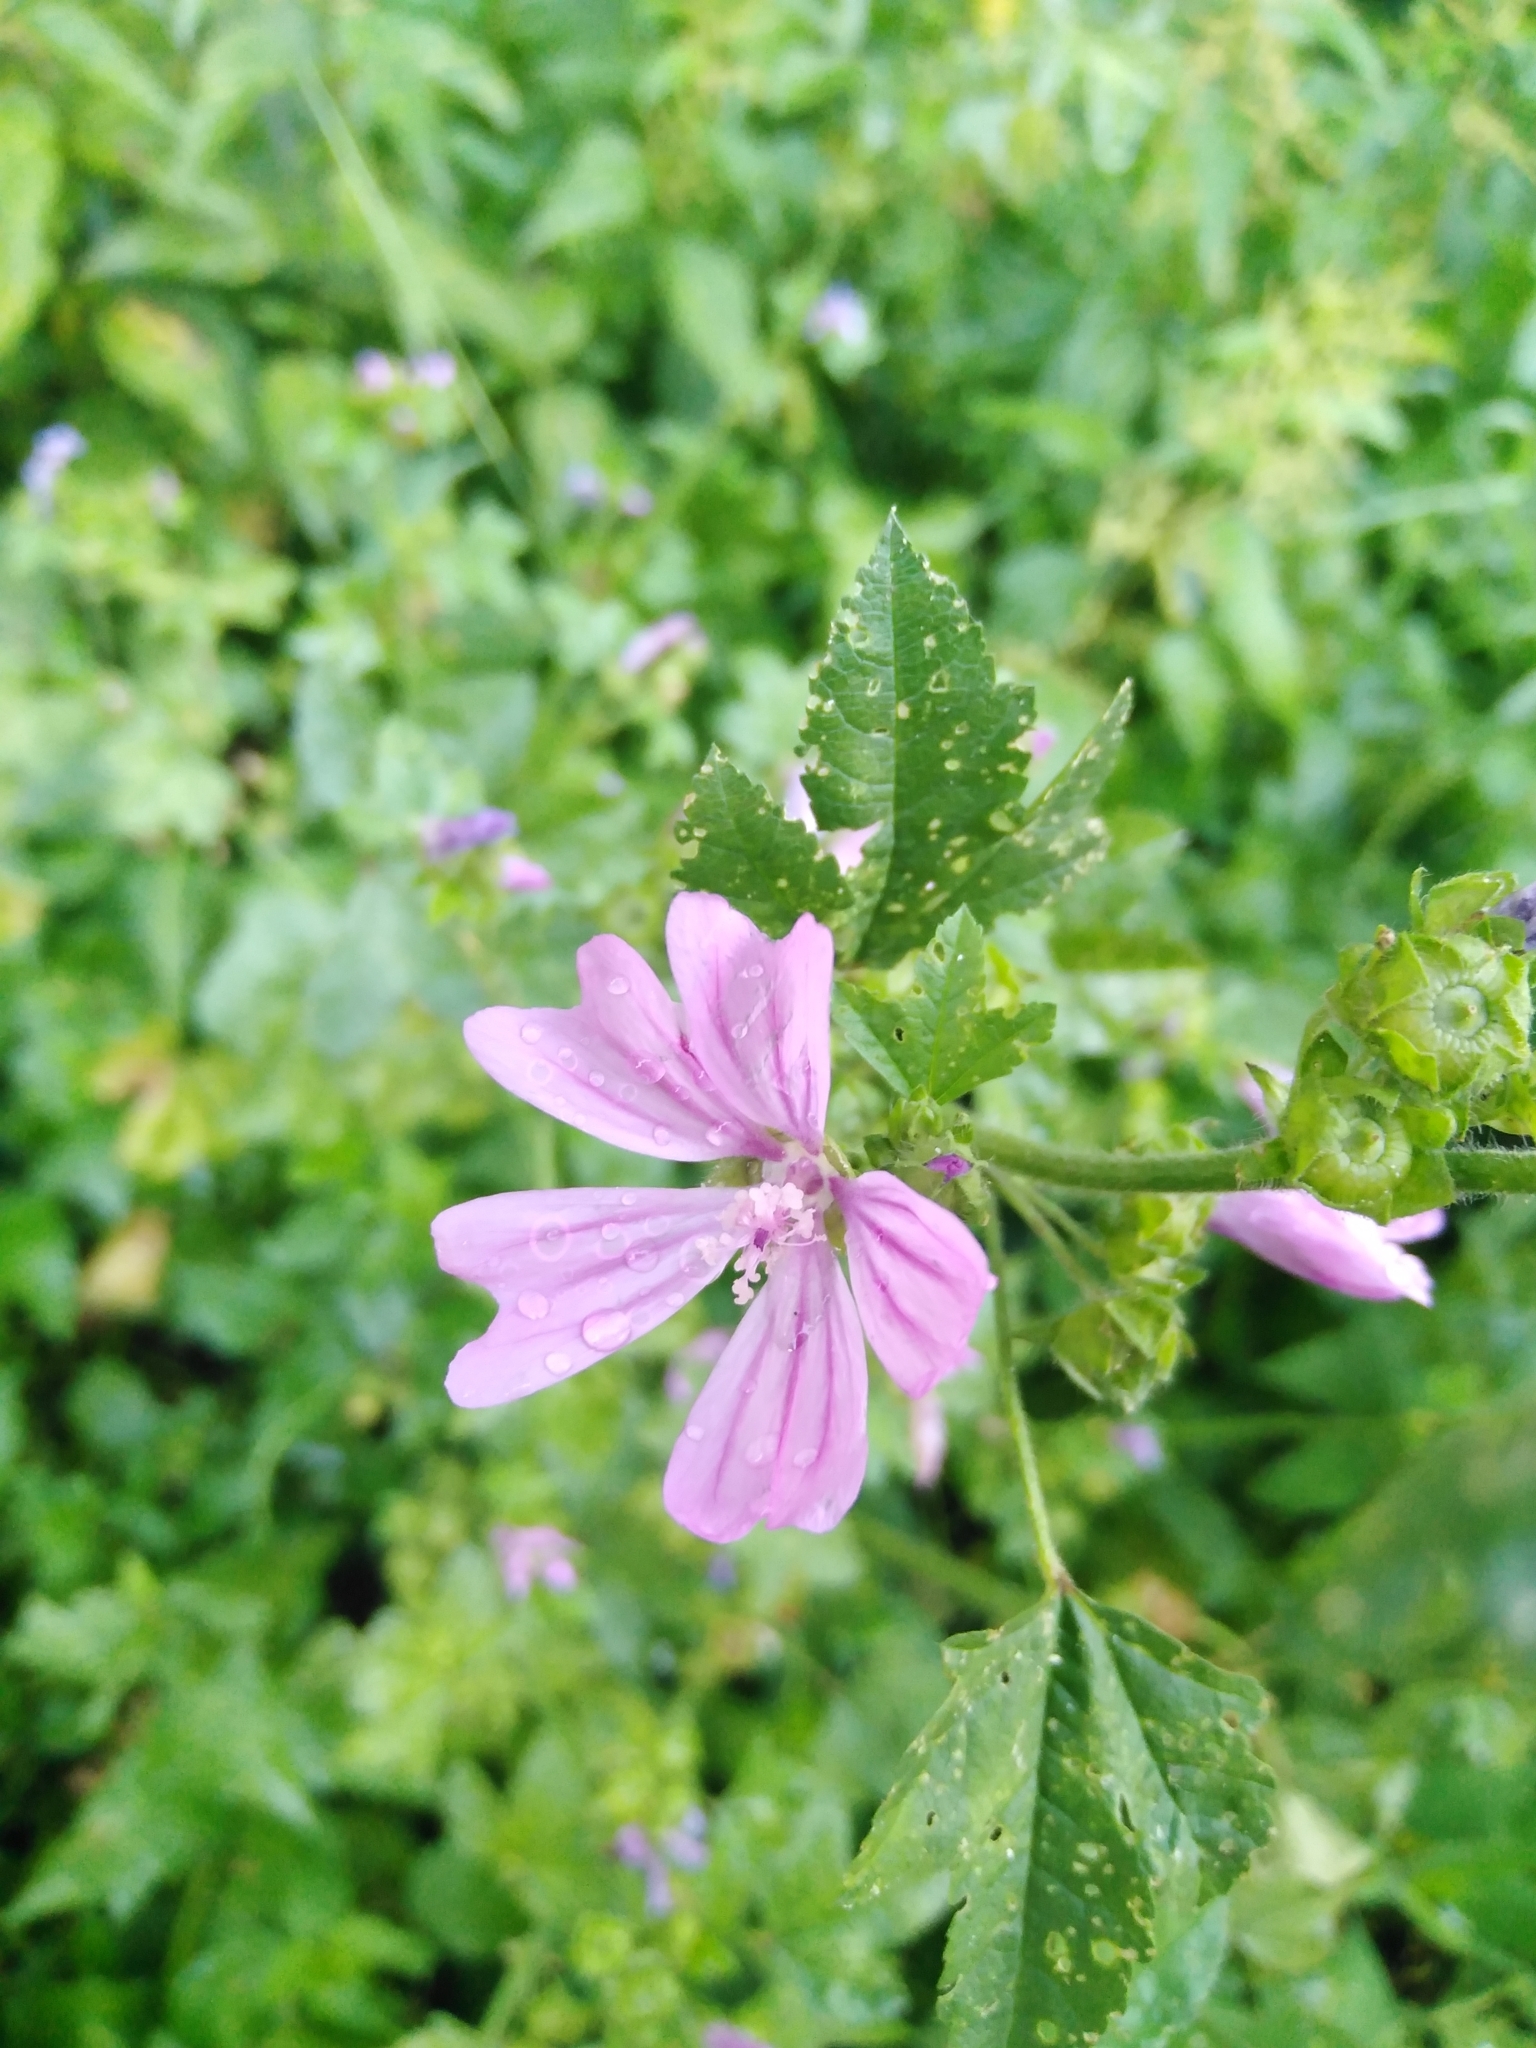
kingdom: Plantae
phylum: Tracheophyta
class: Magnoliopsida
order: Malvales
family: Malvaceae
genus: Malva
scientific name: Malva sylvestris
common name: Common mallow
